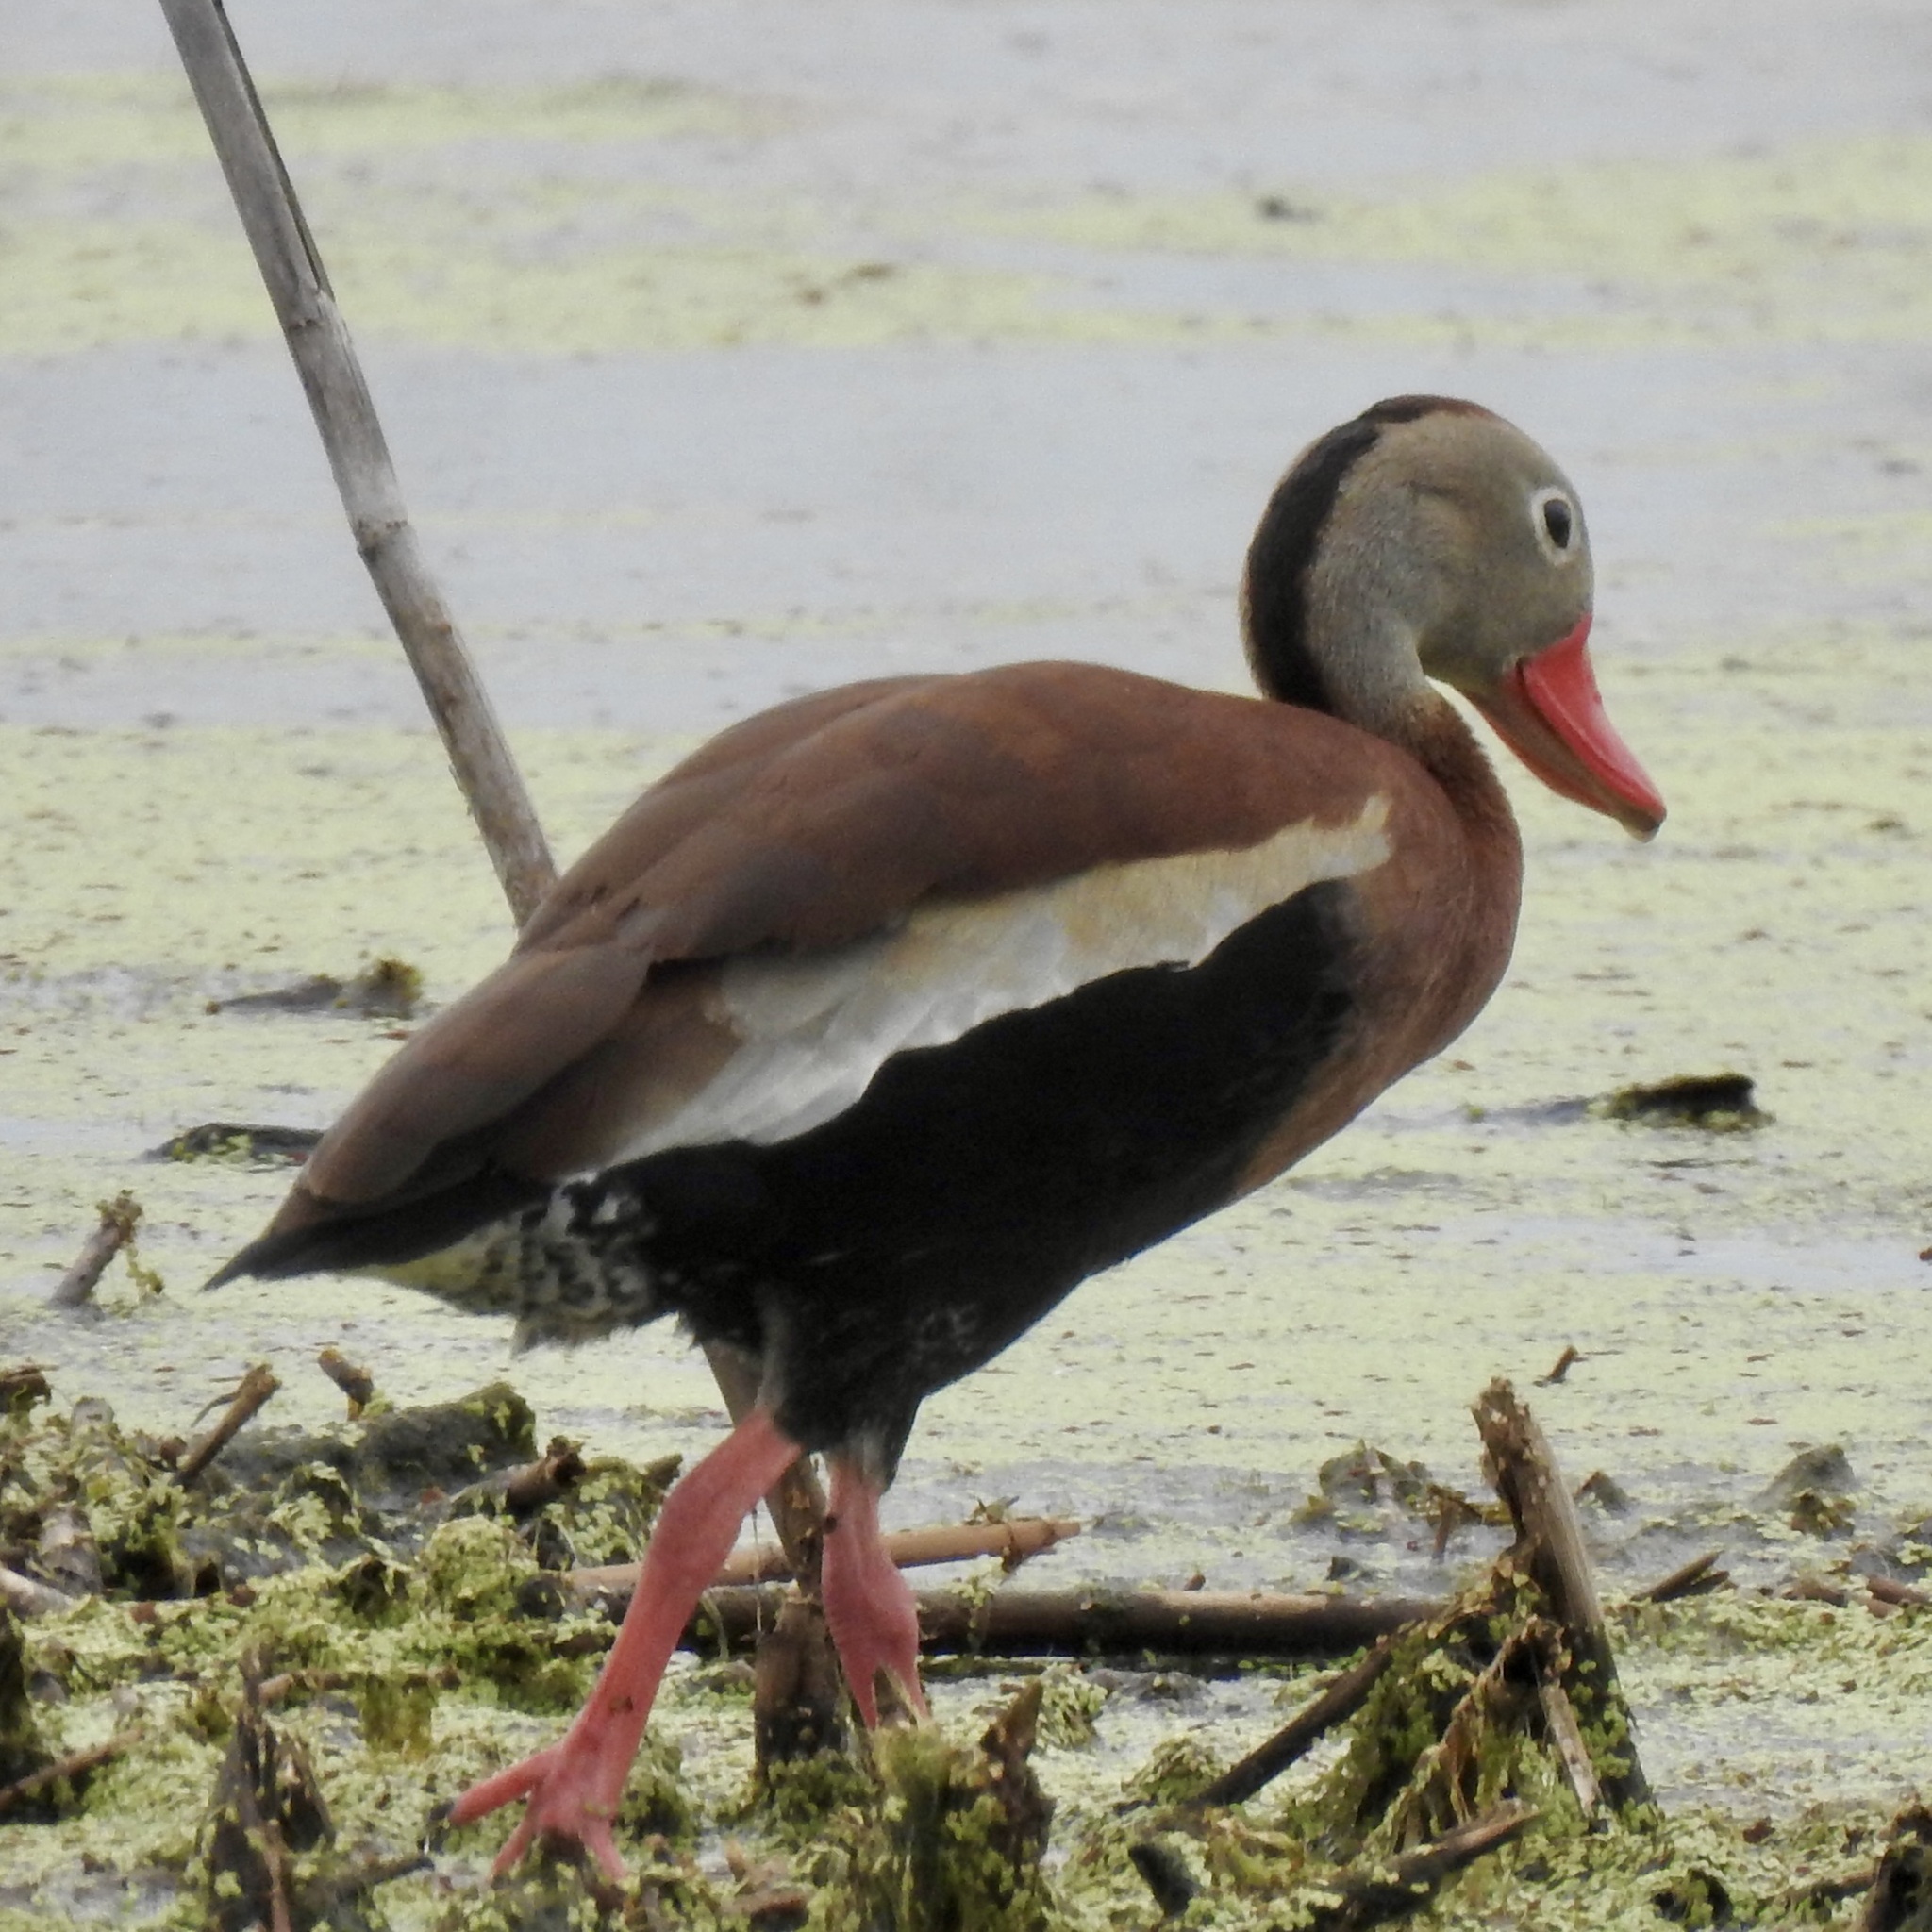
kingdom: Animalia
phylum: Chordata
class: Aves
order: Anseriformes
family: Anatidae
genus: Dendrocygna
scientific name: Dendrocygna autumnalis
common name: Black-bellied whistling duck
